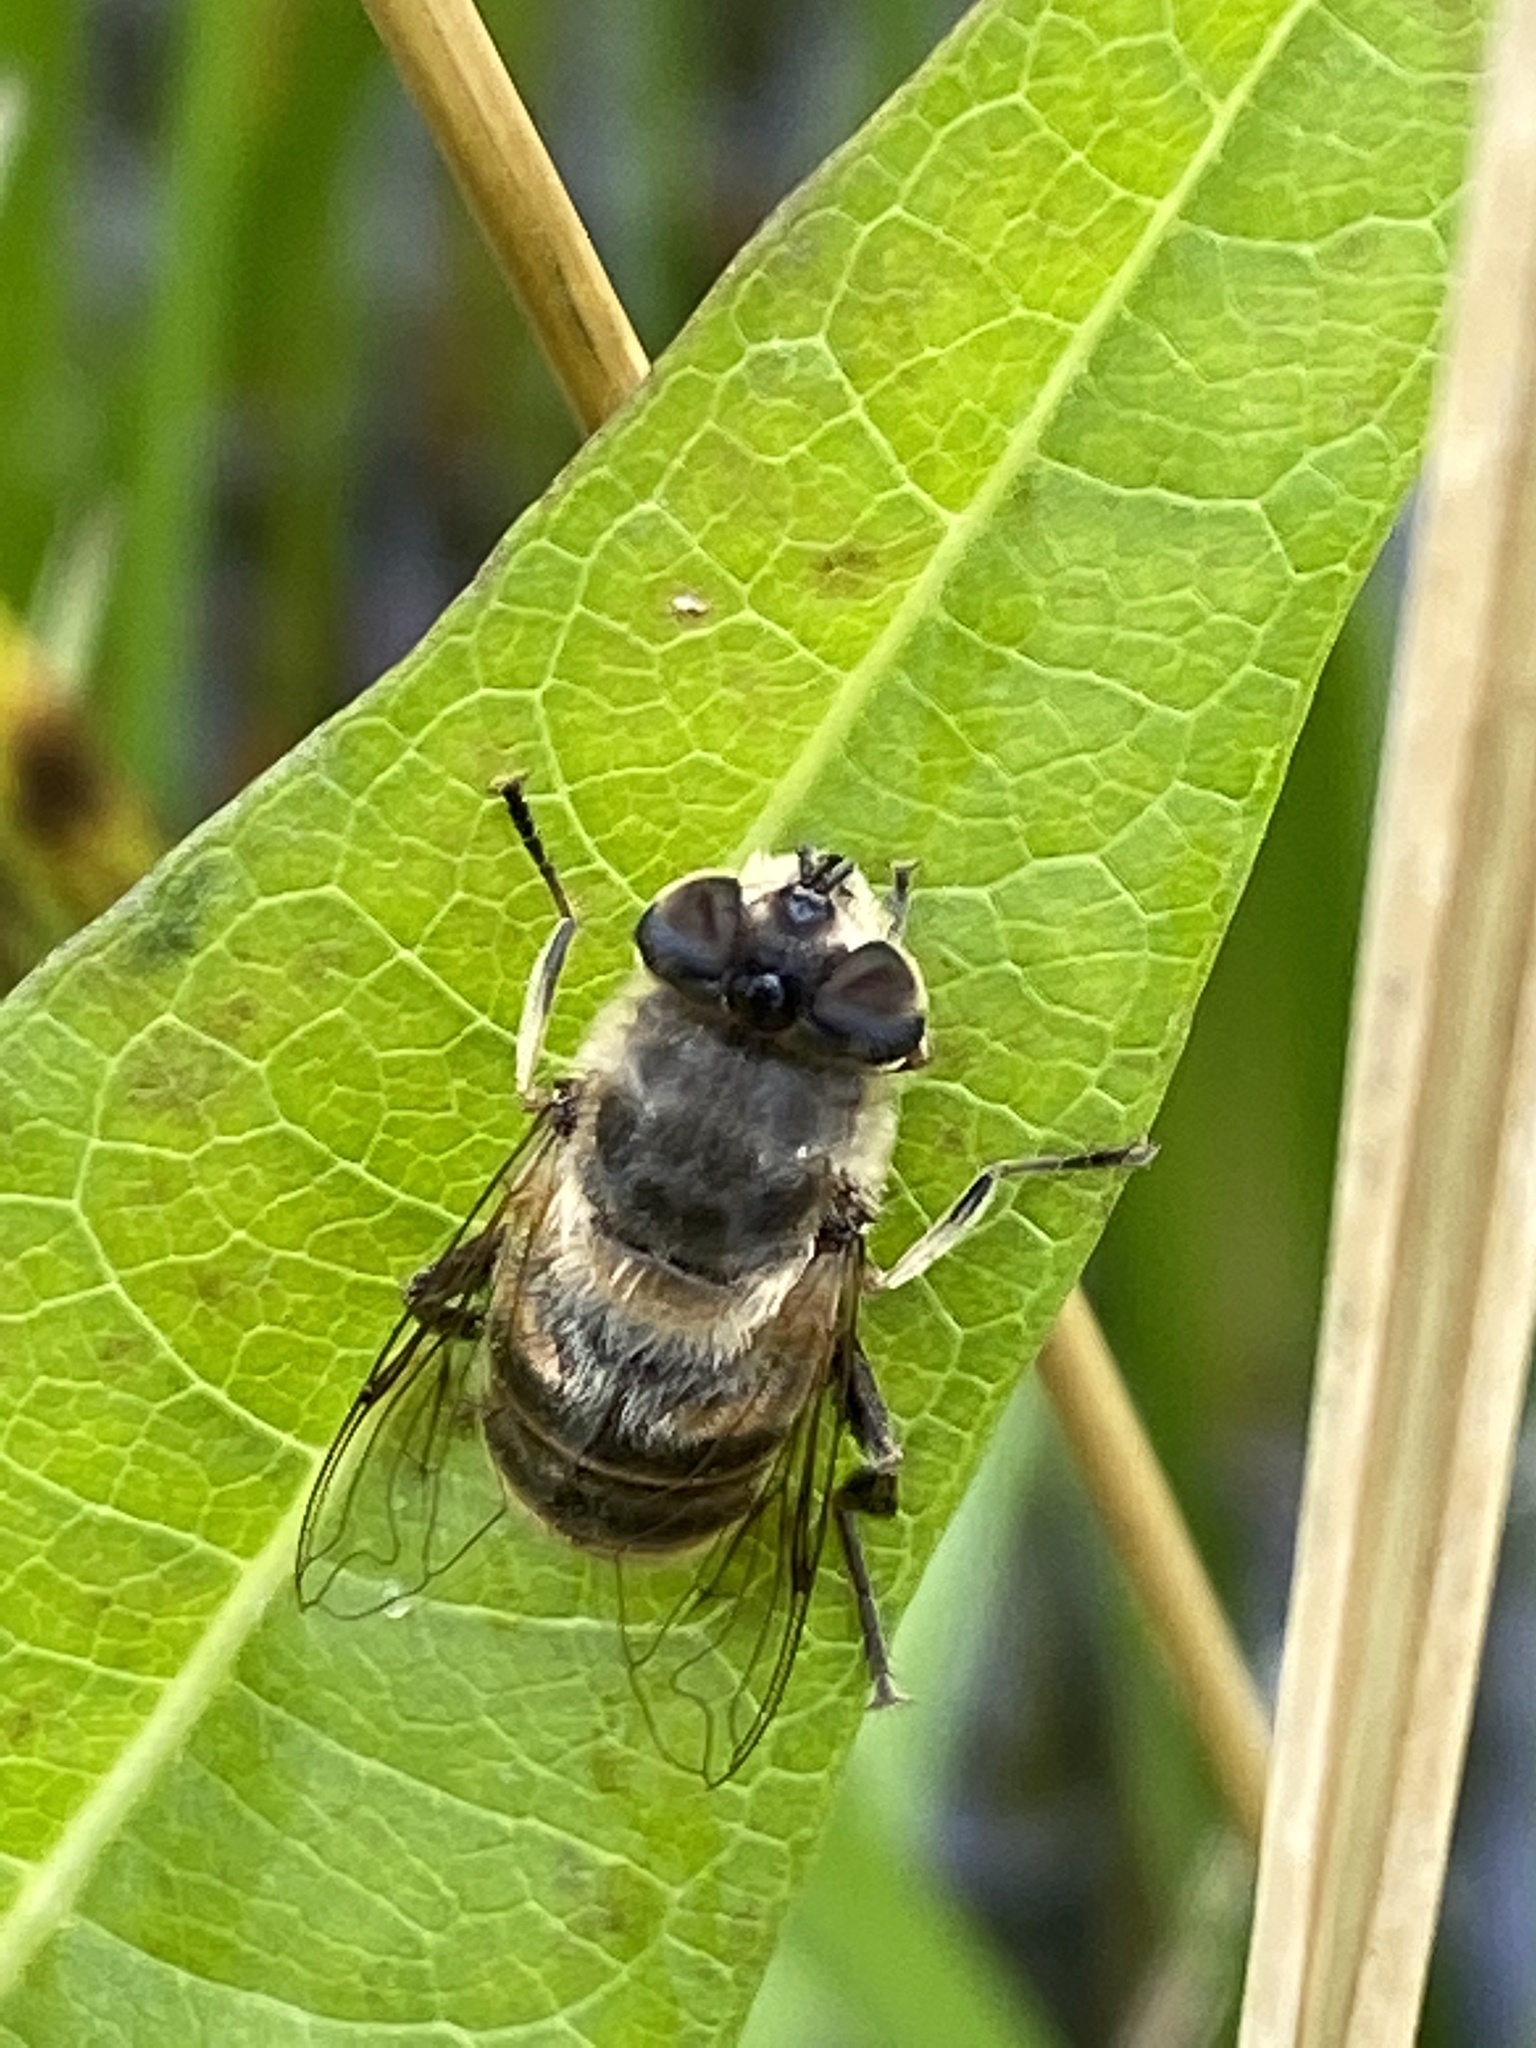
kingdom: Animalia
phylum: Arthropoda
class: Insecta
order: Diptera
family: Syrphidae
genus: Eristalis
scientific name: Eristalis tenax
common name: Drone fly
